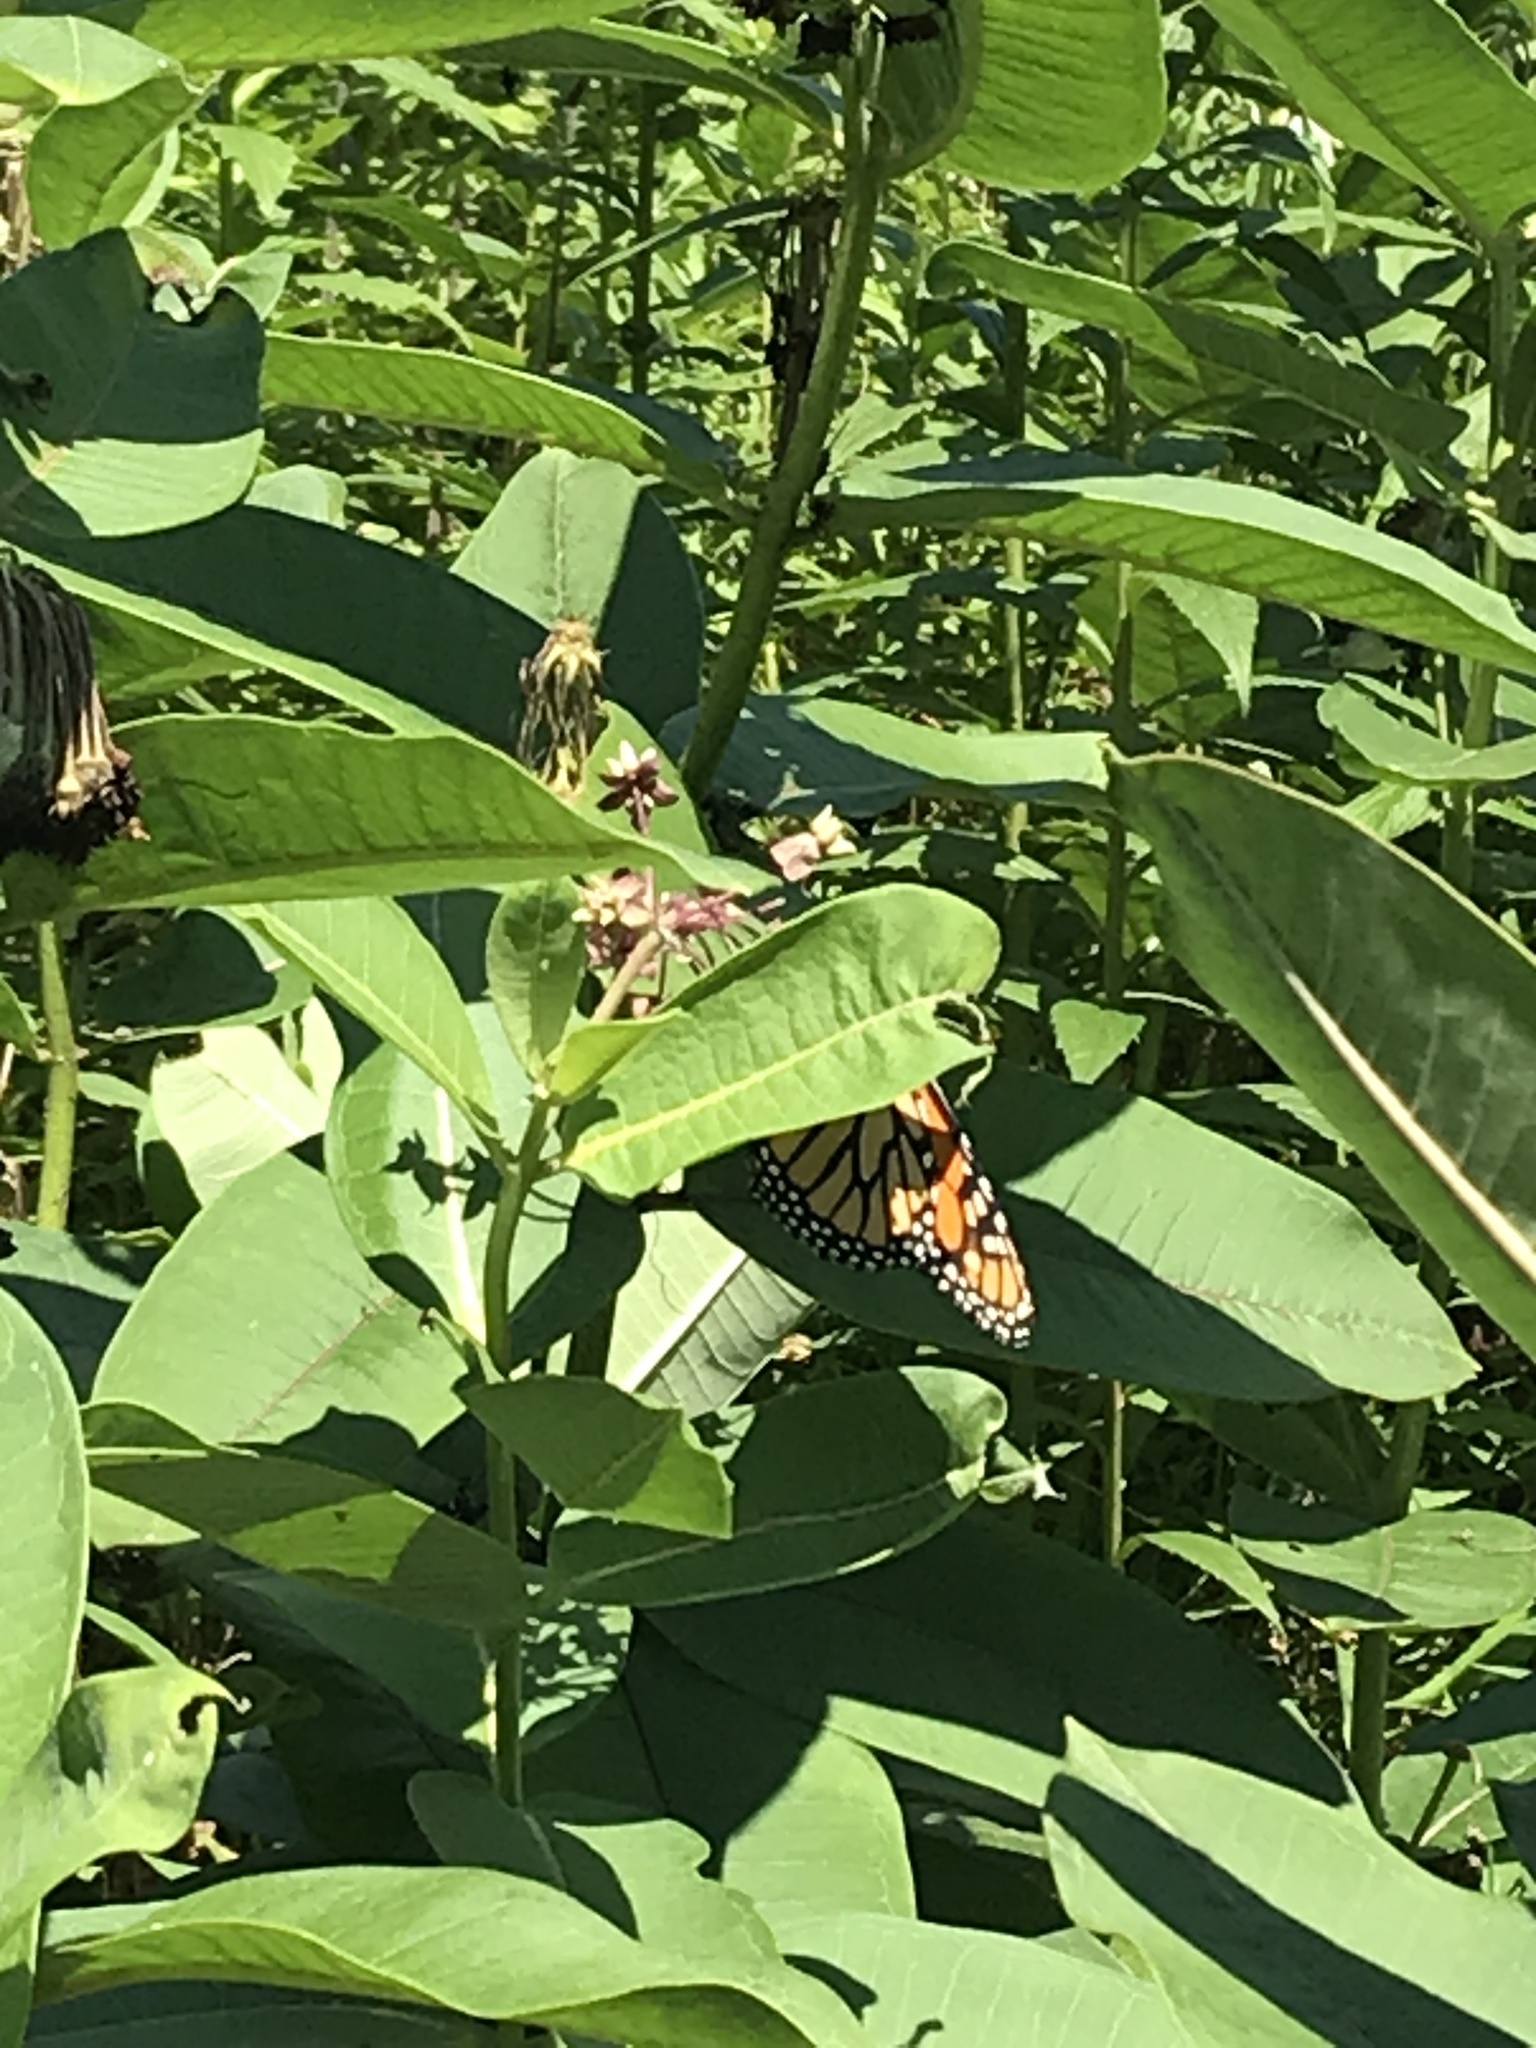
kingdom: Animalia
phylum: Arthropoda
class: Insecta
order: Lepidoptera
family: Nymphalidae
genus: Danaus
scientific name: Danaus plexippus
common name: Monarch
